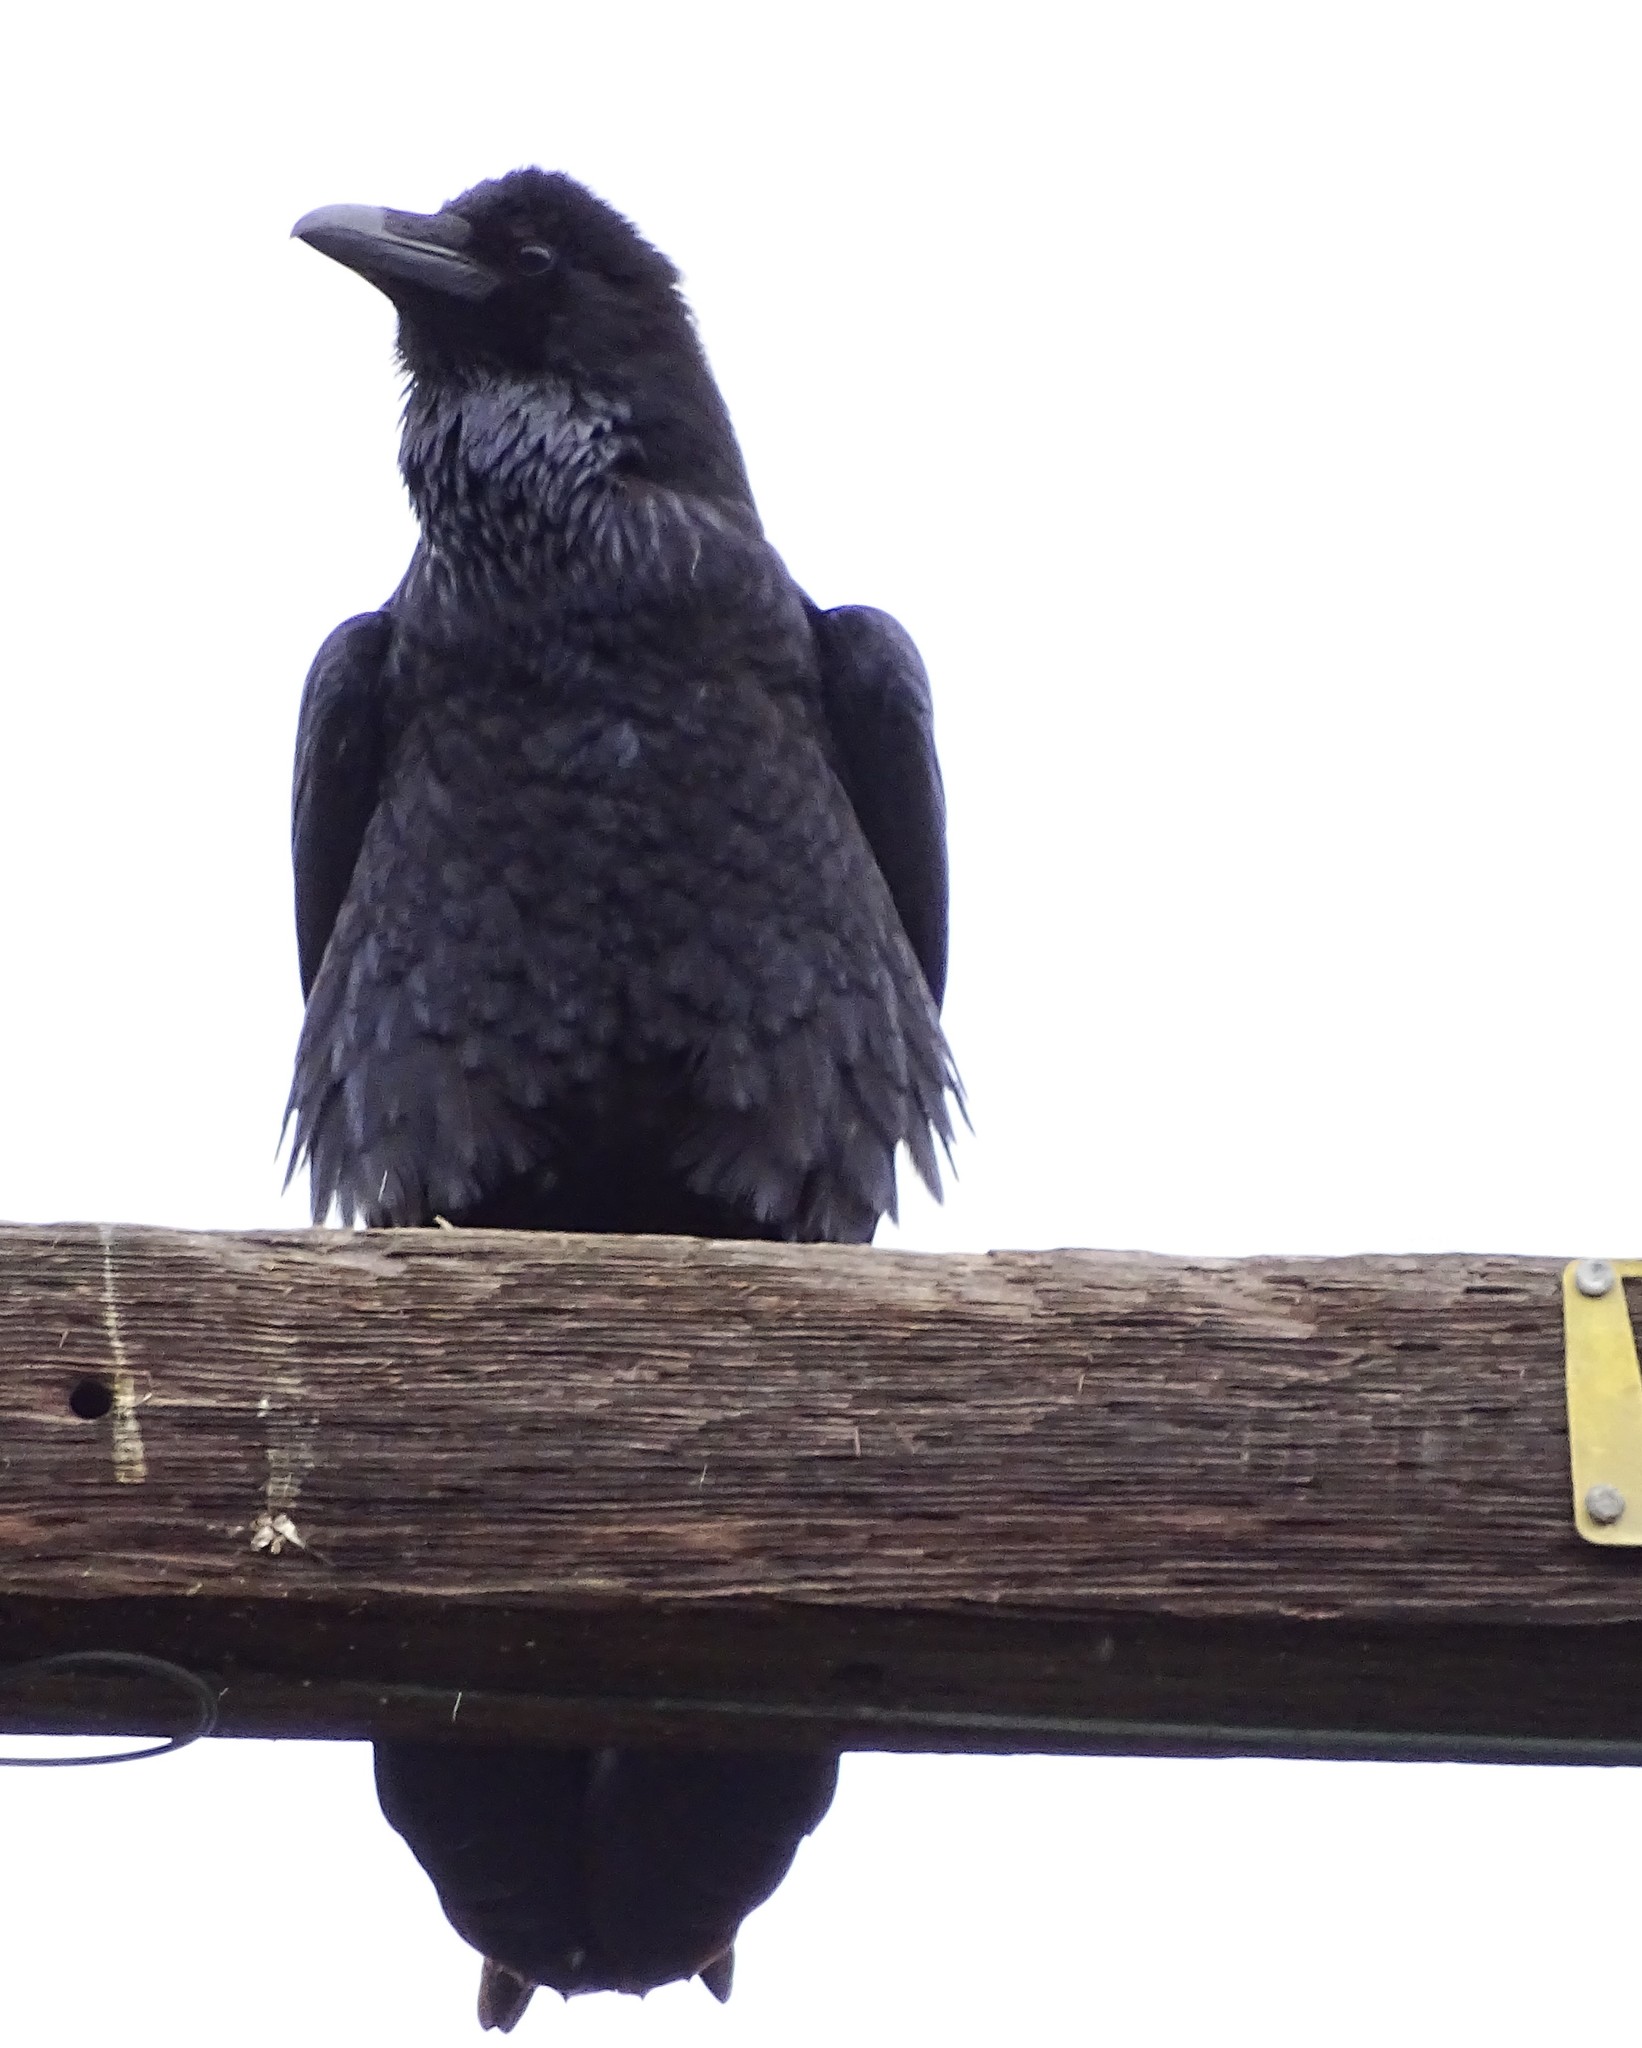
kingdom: Animalia
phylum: Chordata
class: Aves
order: Passeriformes
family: Corvidae
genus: Corvus
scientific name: Corvus brachyrhynchos
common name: American crow
